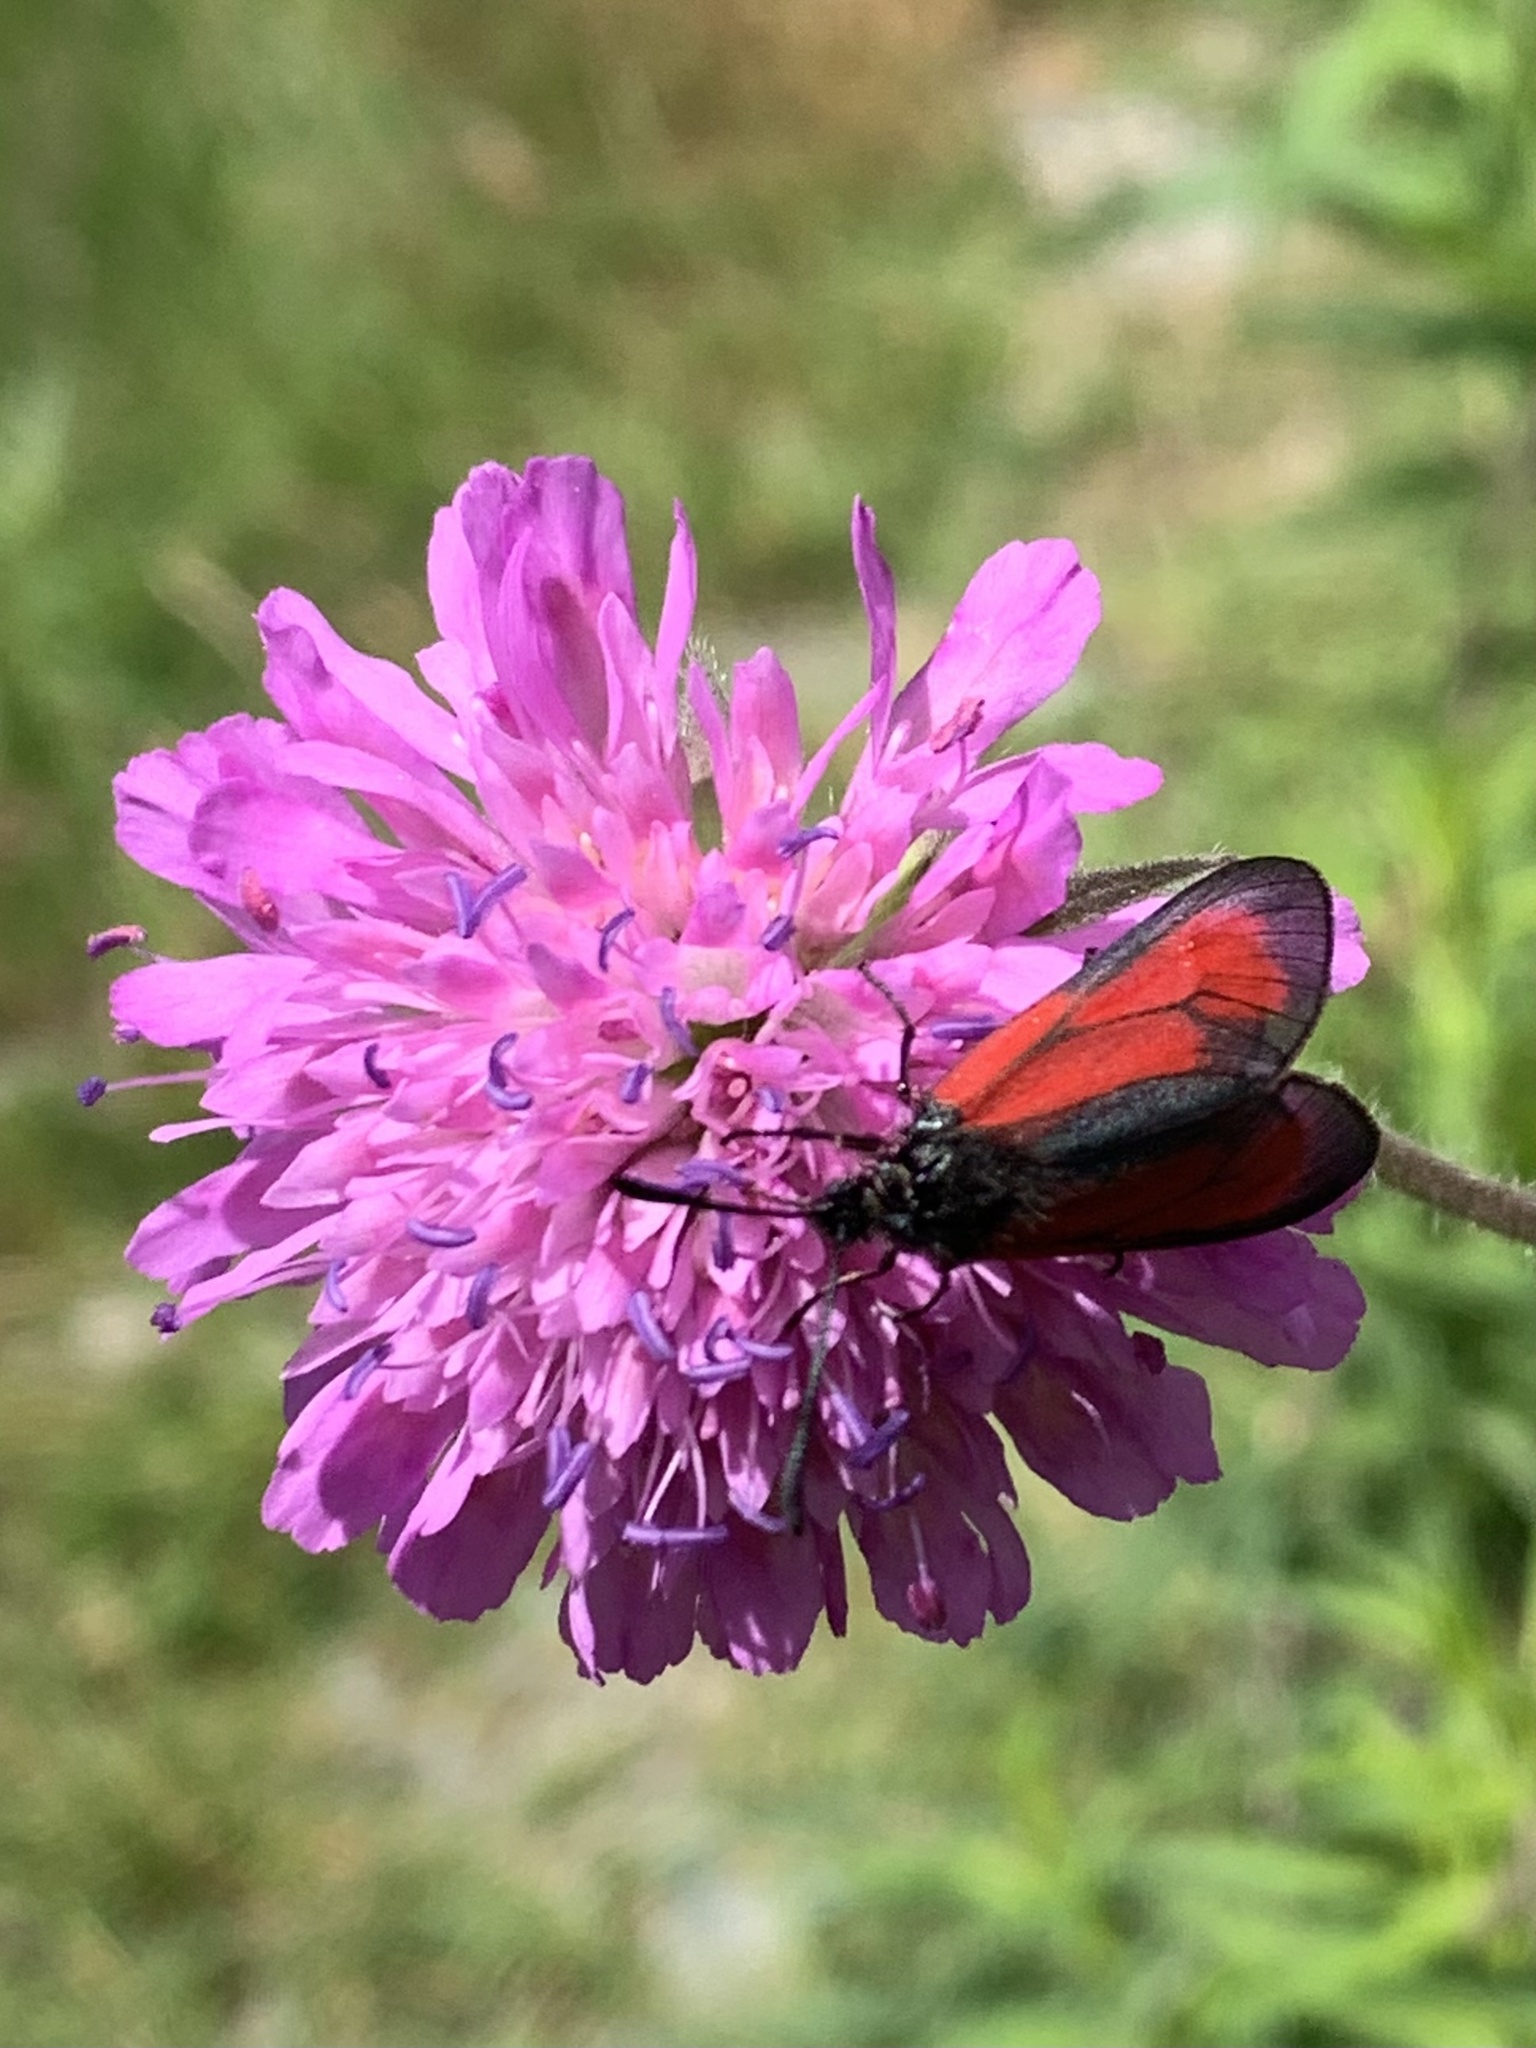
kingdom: Animalia
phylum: Arthropoda
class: Insecta
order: Lepidoptera
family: Zygaenidae
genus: Zygaena
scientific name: Zygaena purpuralis
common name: Transparent burnet
